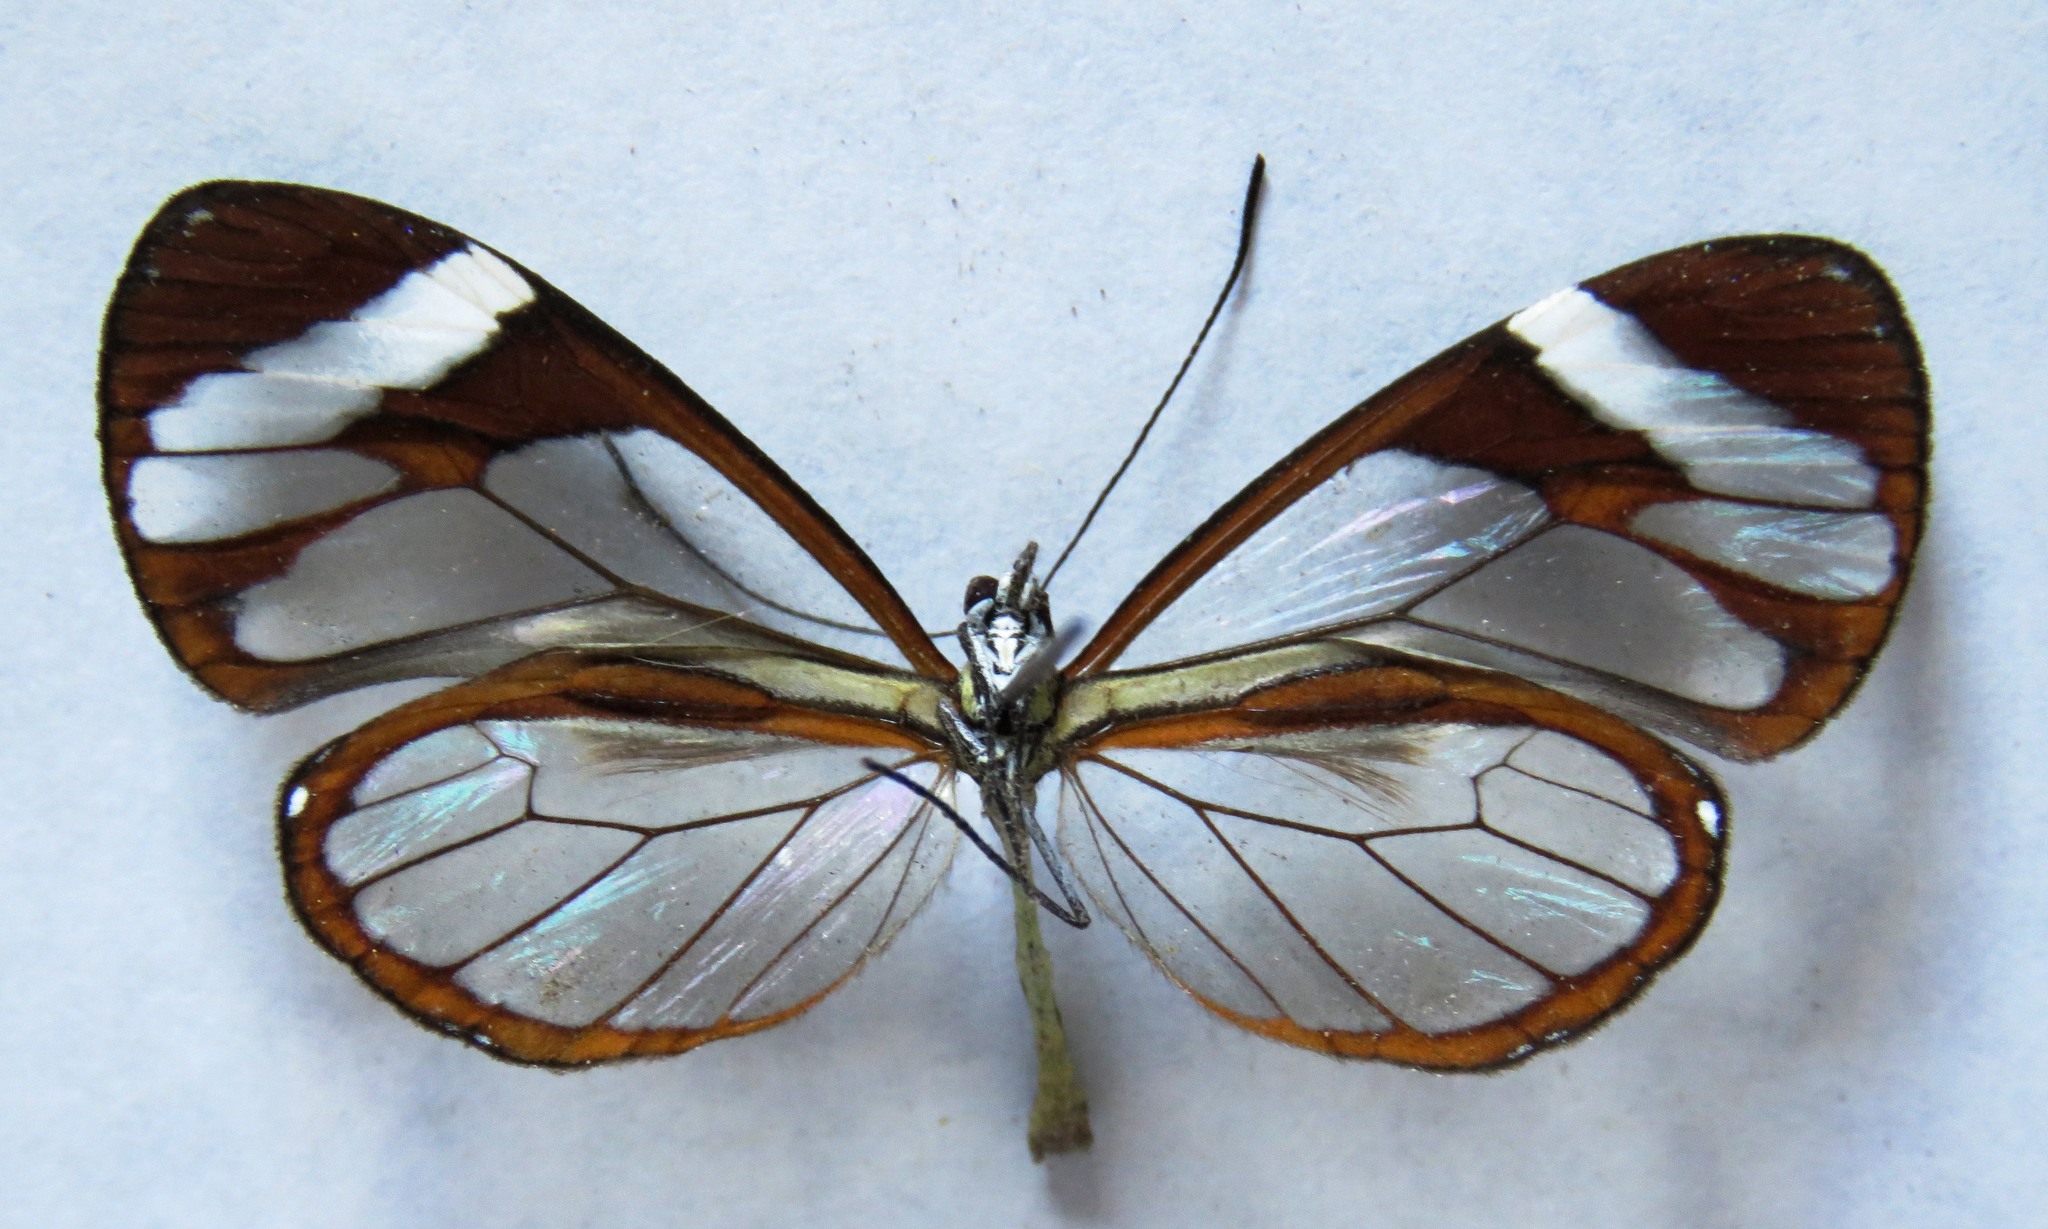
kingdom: Animalia
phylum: Arthropoda
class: Insecta
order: Lepidoptera
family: Nymphalidae
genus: Ithomia
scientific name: Ithomia patilla
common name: Patilla clearwing
